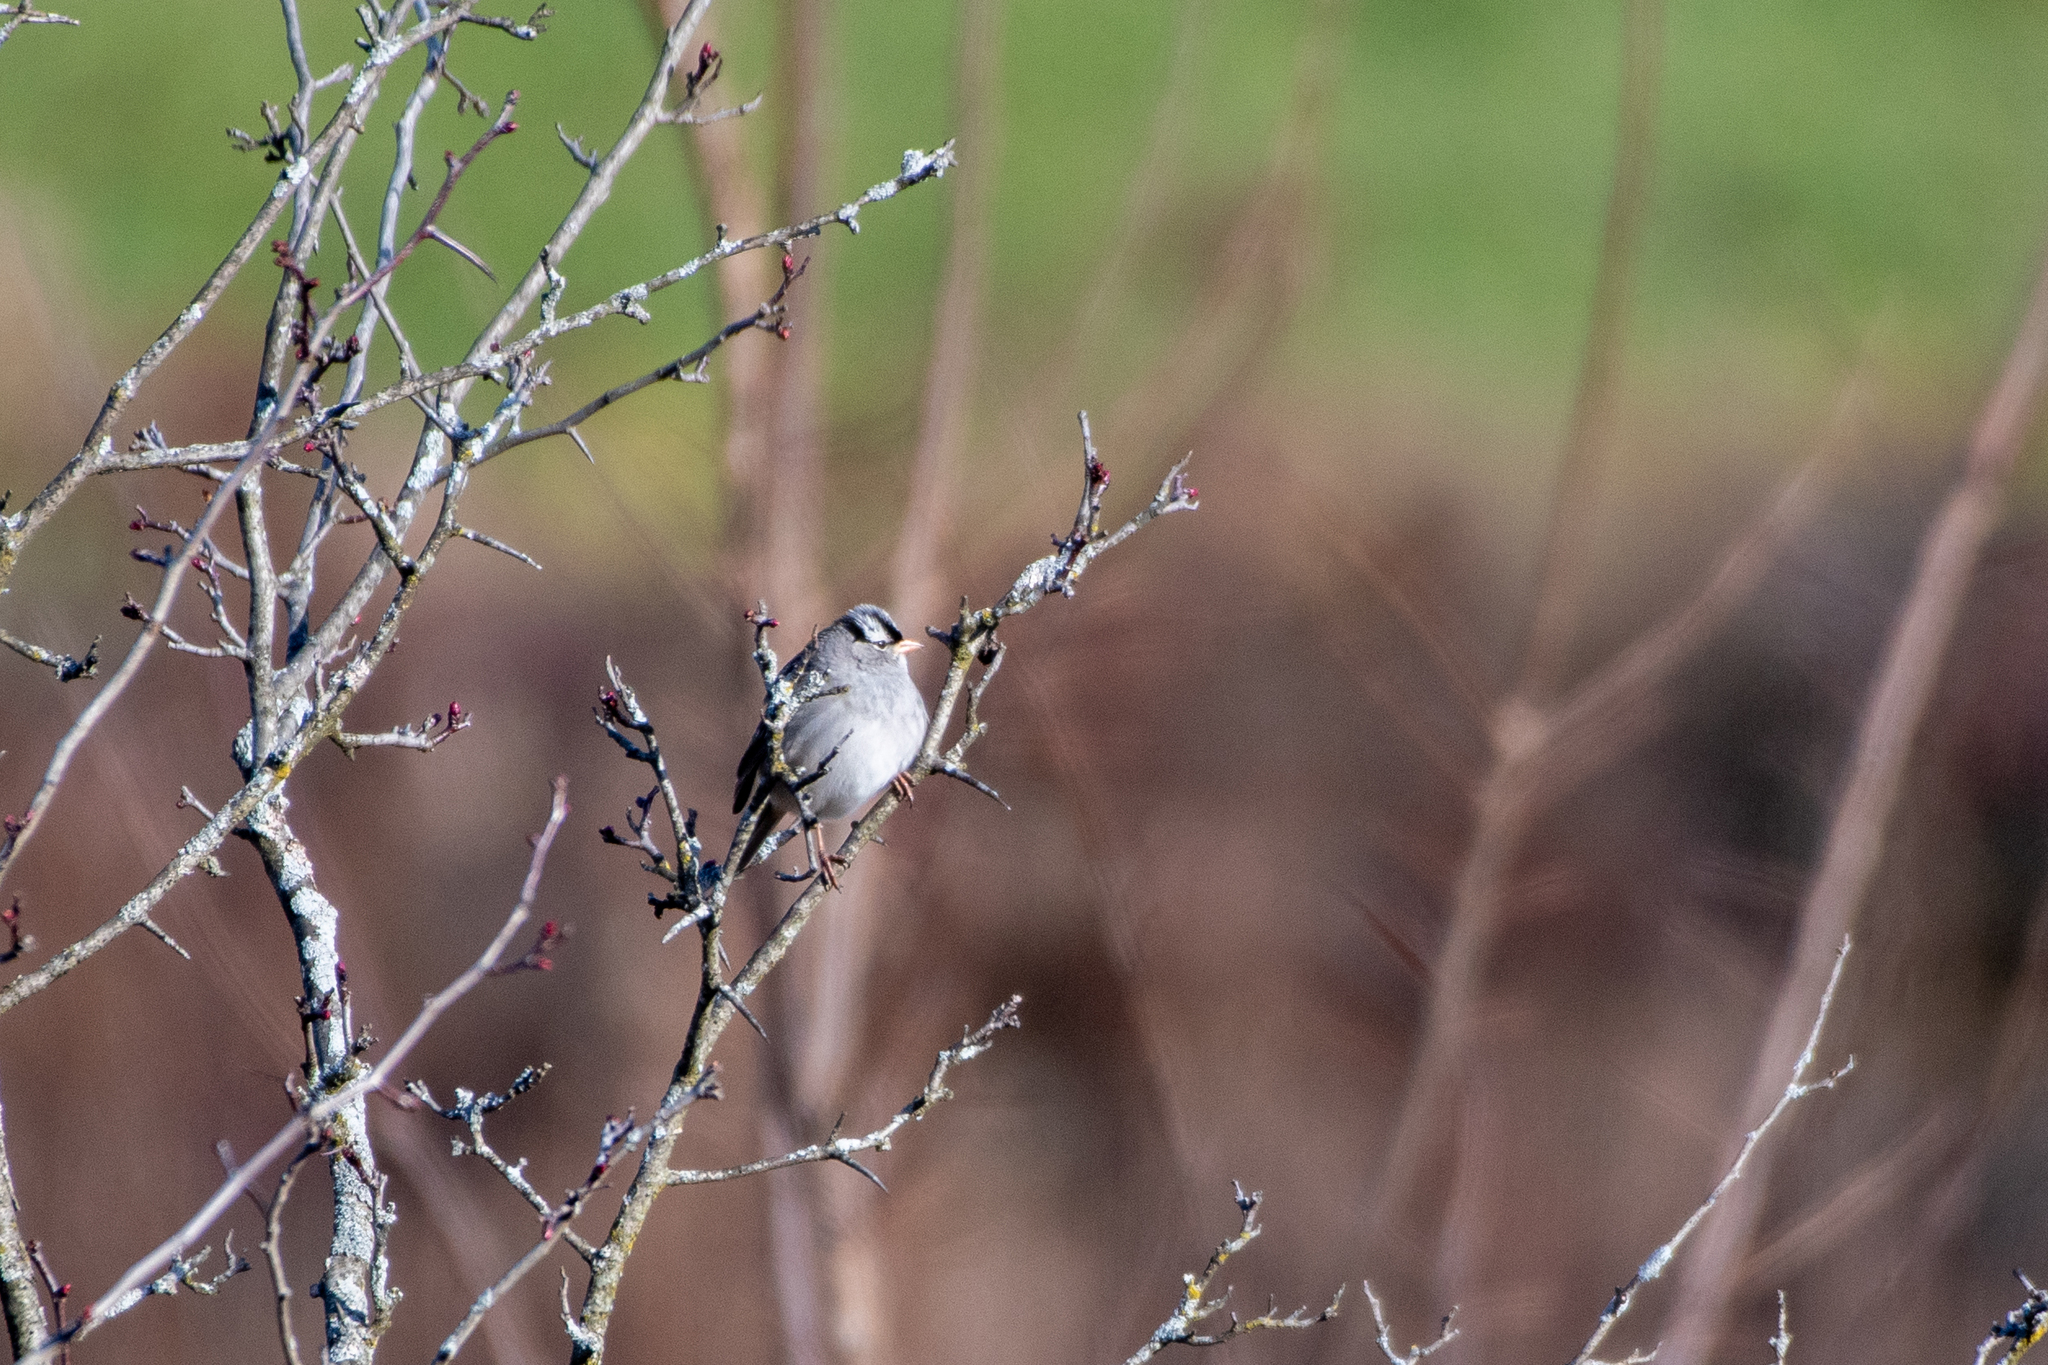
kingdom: Animalia
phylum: Chordata
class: Aves
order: Passeriformes
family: Passerellidae
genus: Zonotrichia
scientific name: Zonotrichia leucophrys
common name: White-crowned sparrow
